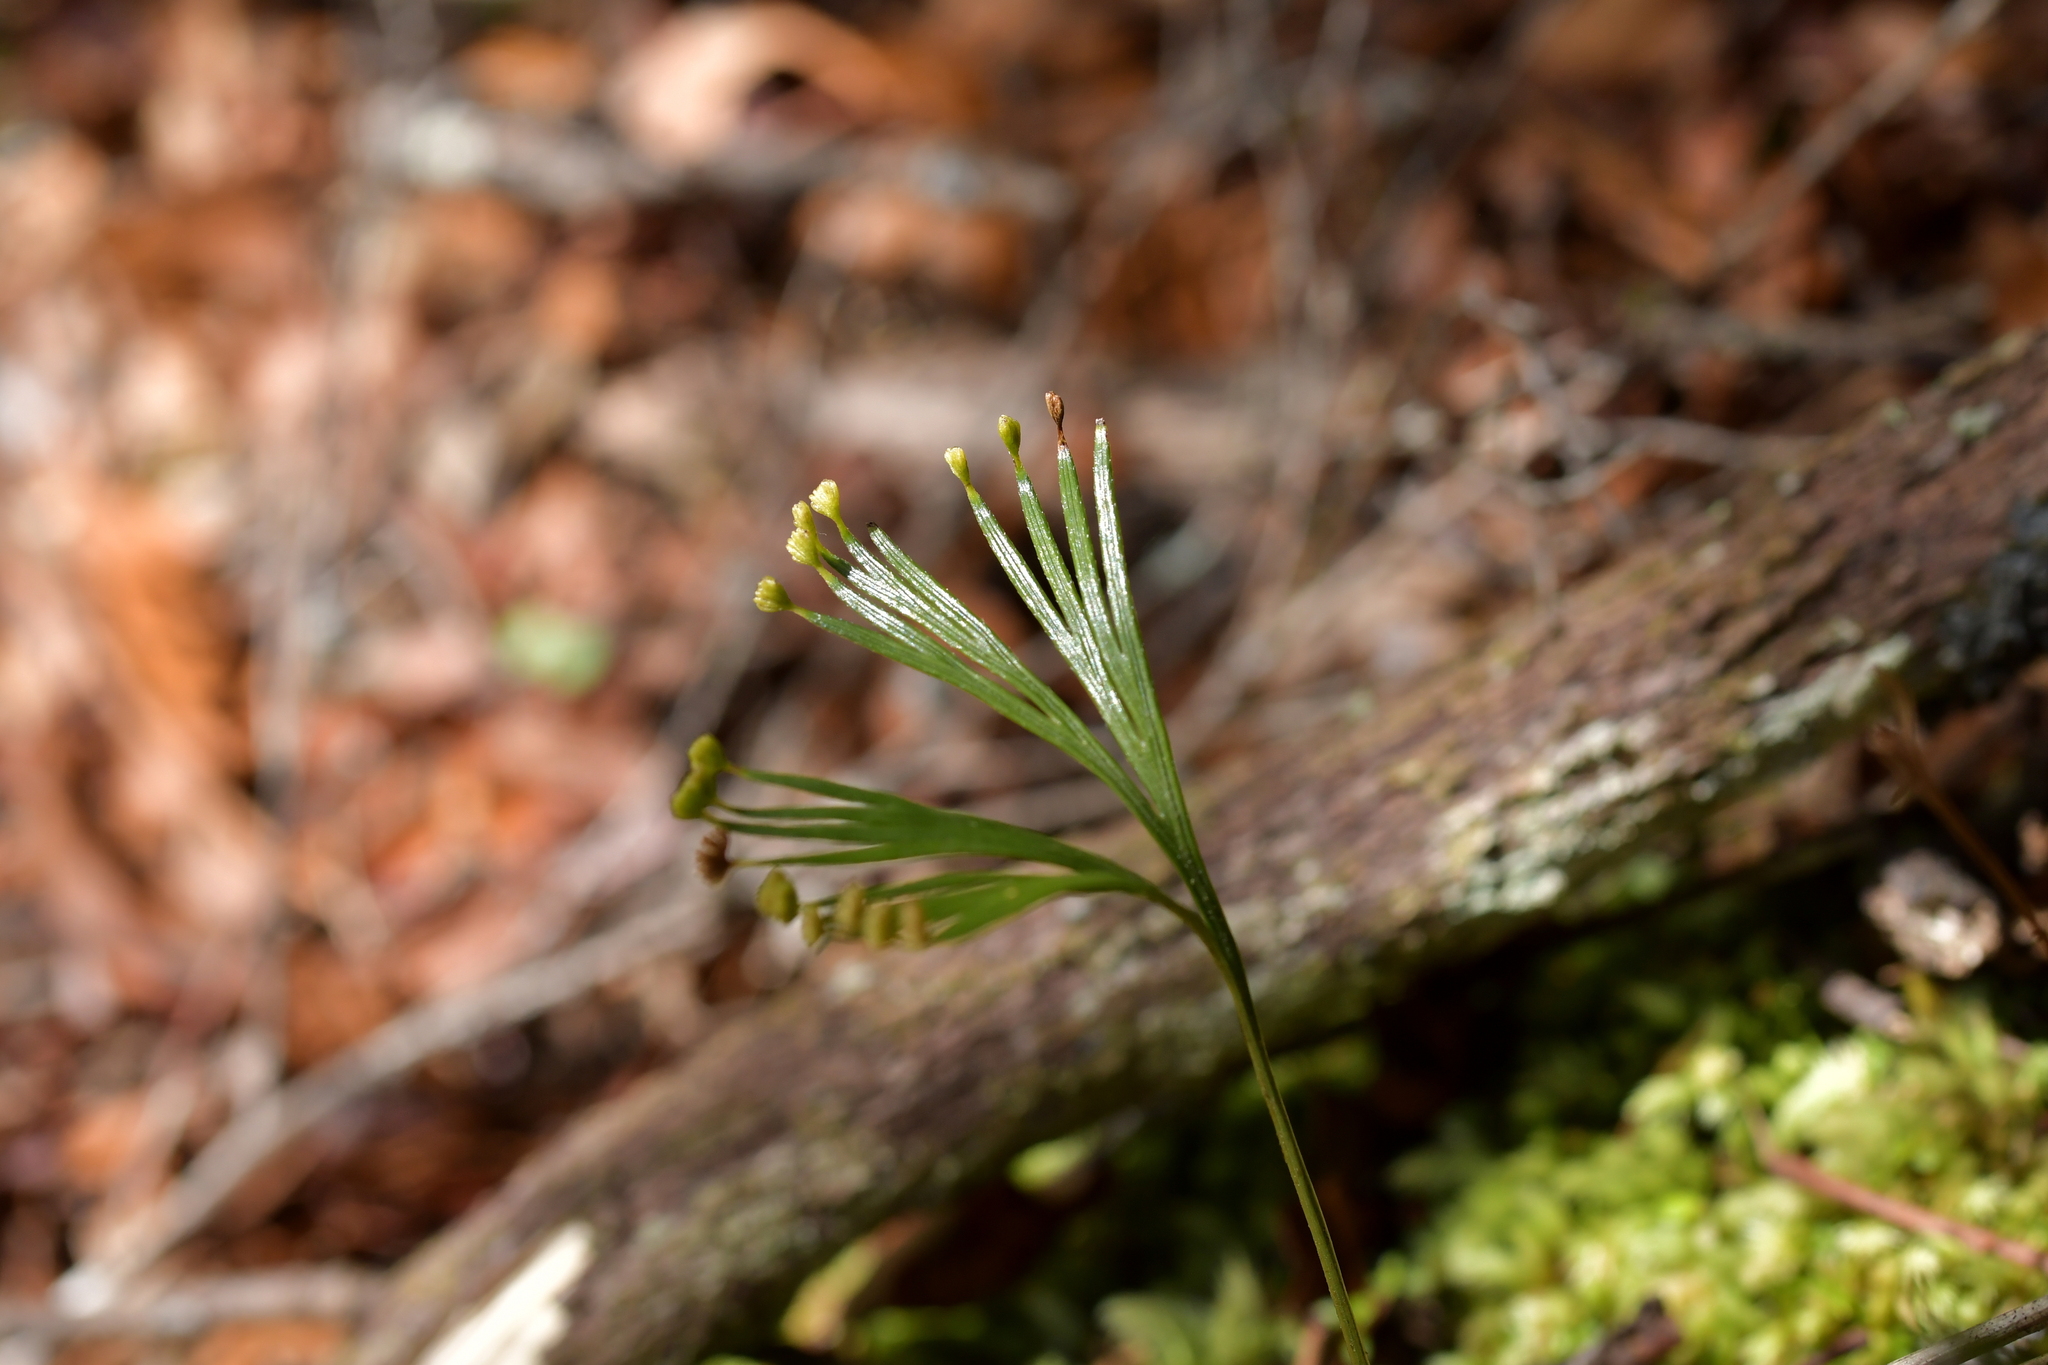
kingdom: Plantae
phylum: Tracheophyta
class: Polypodiopsida
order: Schizaeales
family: Schizaeaceae
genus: Schizaea
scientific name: Schizaea dichotoma
